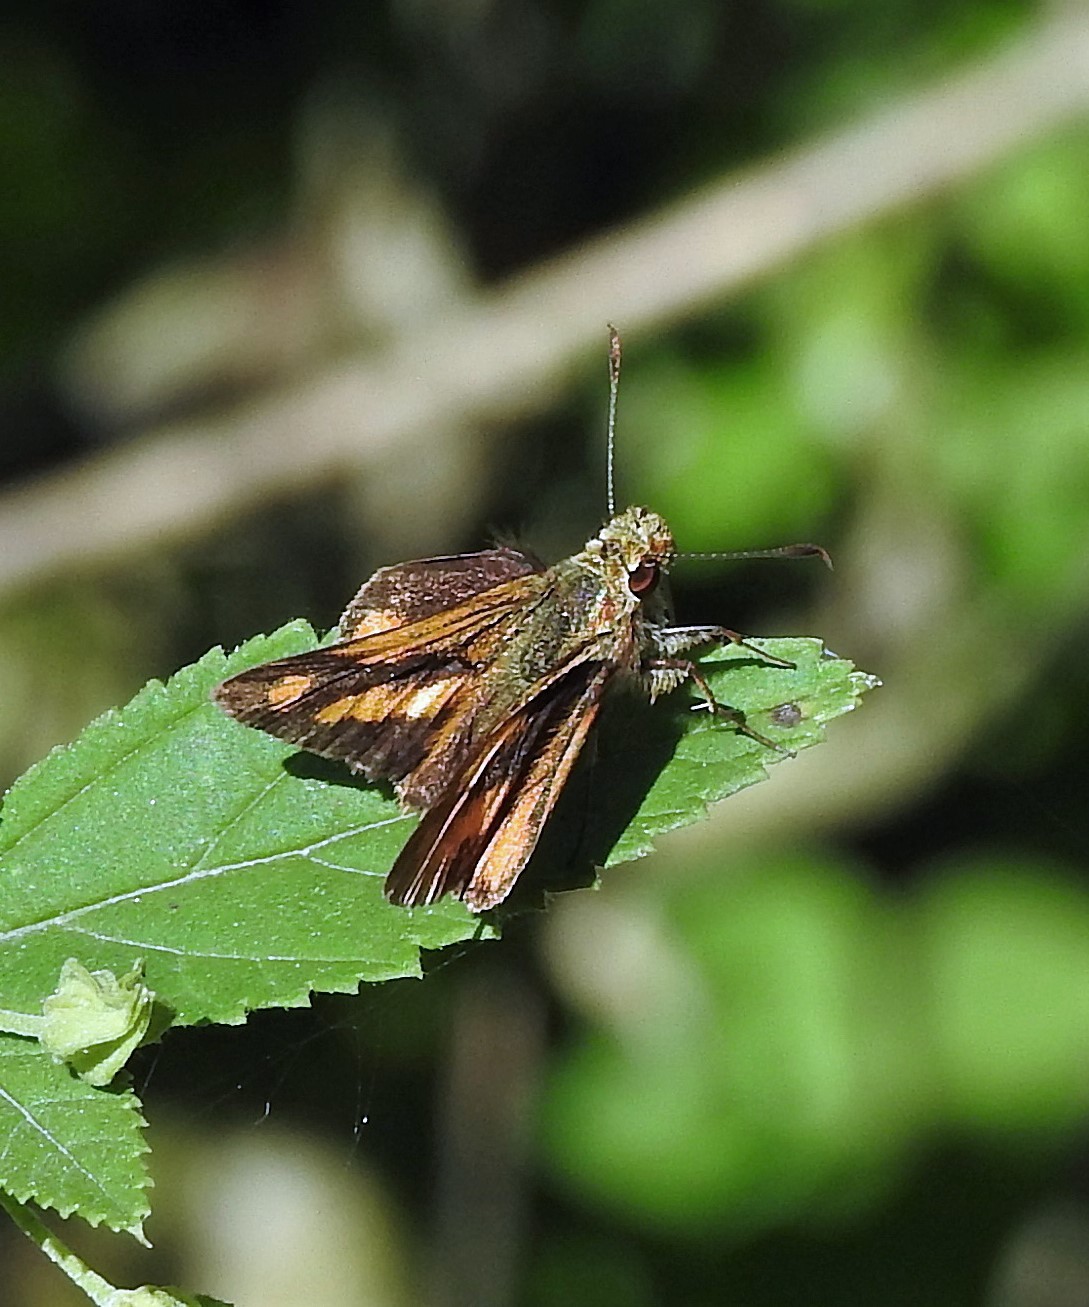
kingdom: Animalia
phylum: Arthropoda
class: Insecta
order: Lepidoptera
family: Hesperiidae
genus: Zalomes
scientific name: Zalomes kenava
